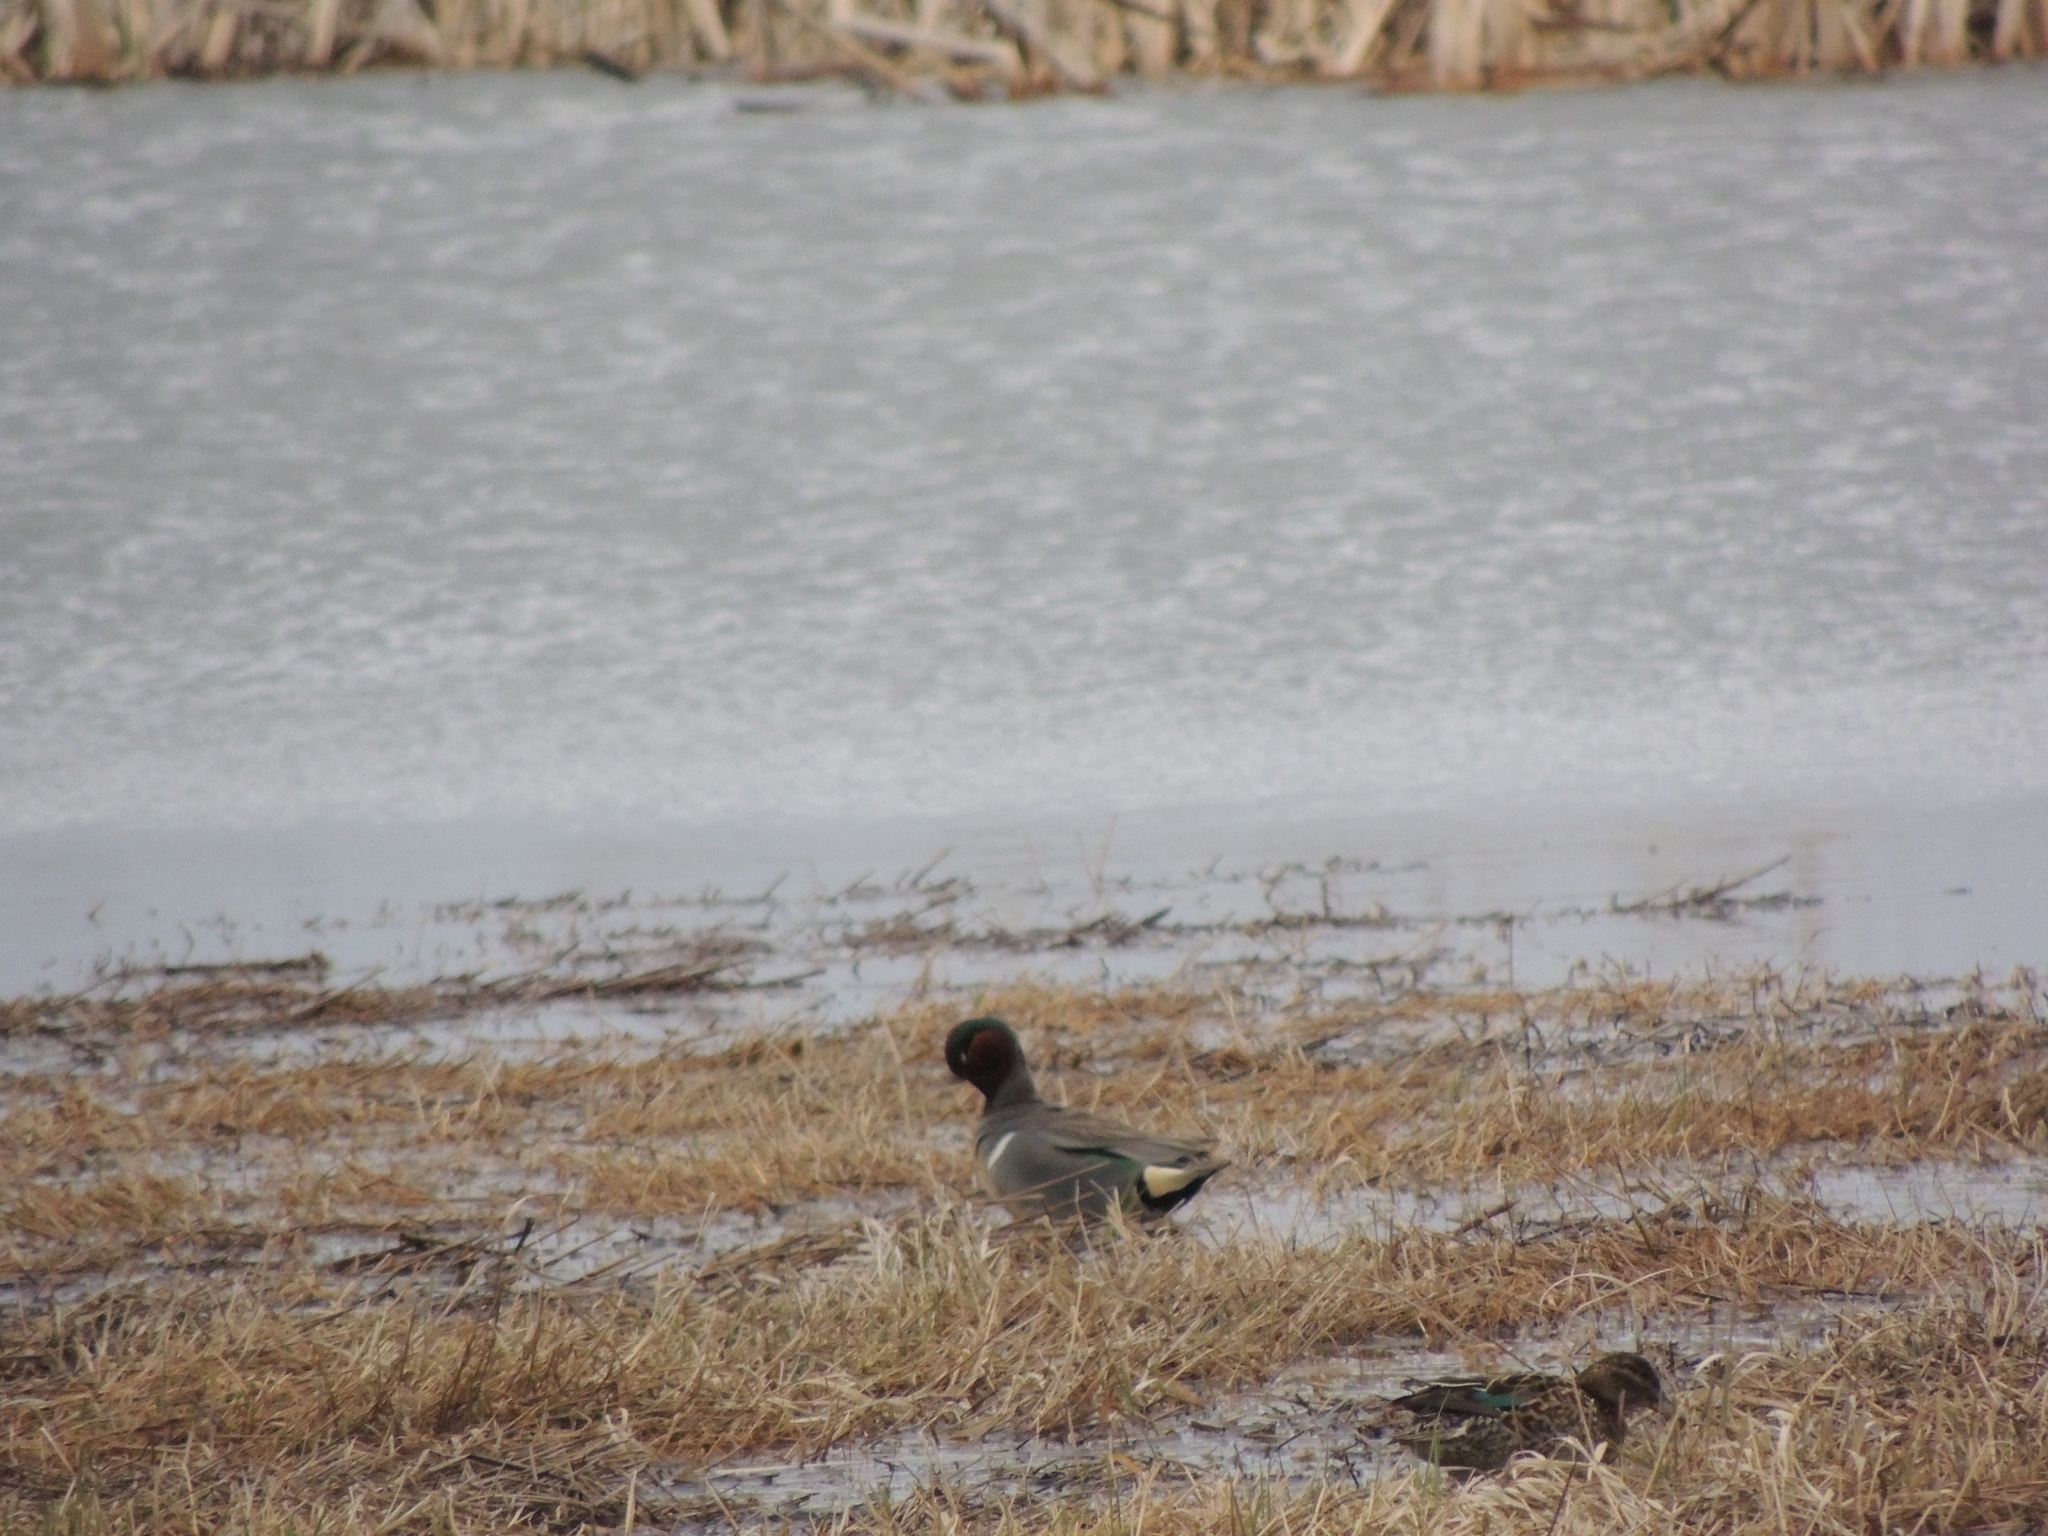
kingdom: Animalia
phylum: Chordata
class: Aves
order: Anseriformes
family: Anatidae
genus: Anas
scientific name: Anas crecca
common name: Eurasian teal
